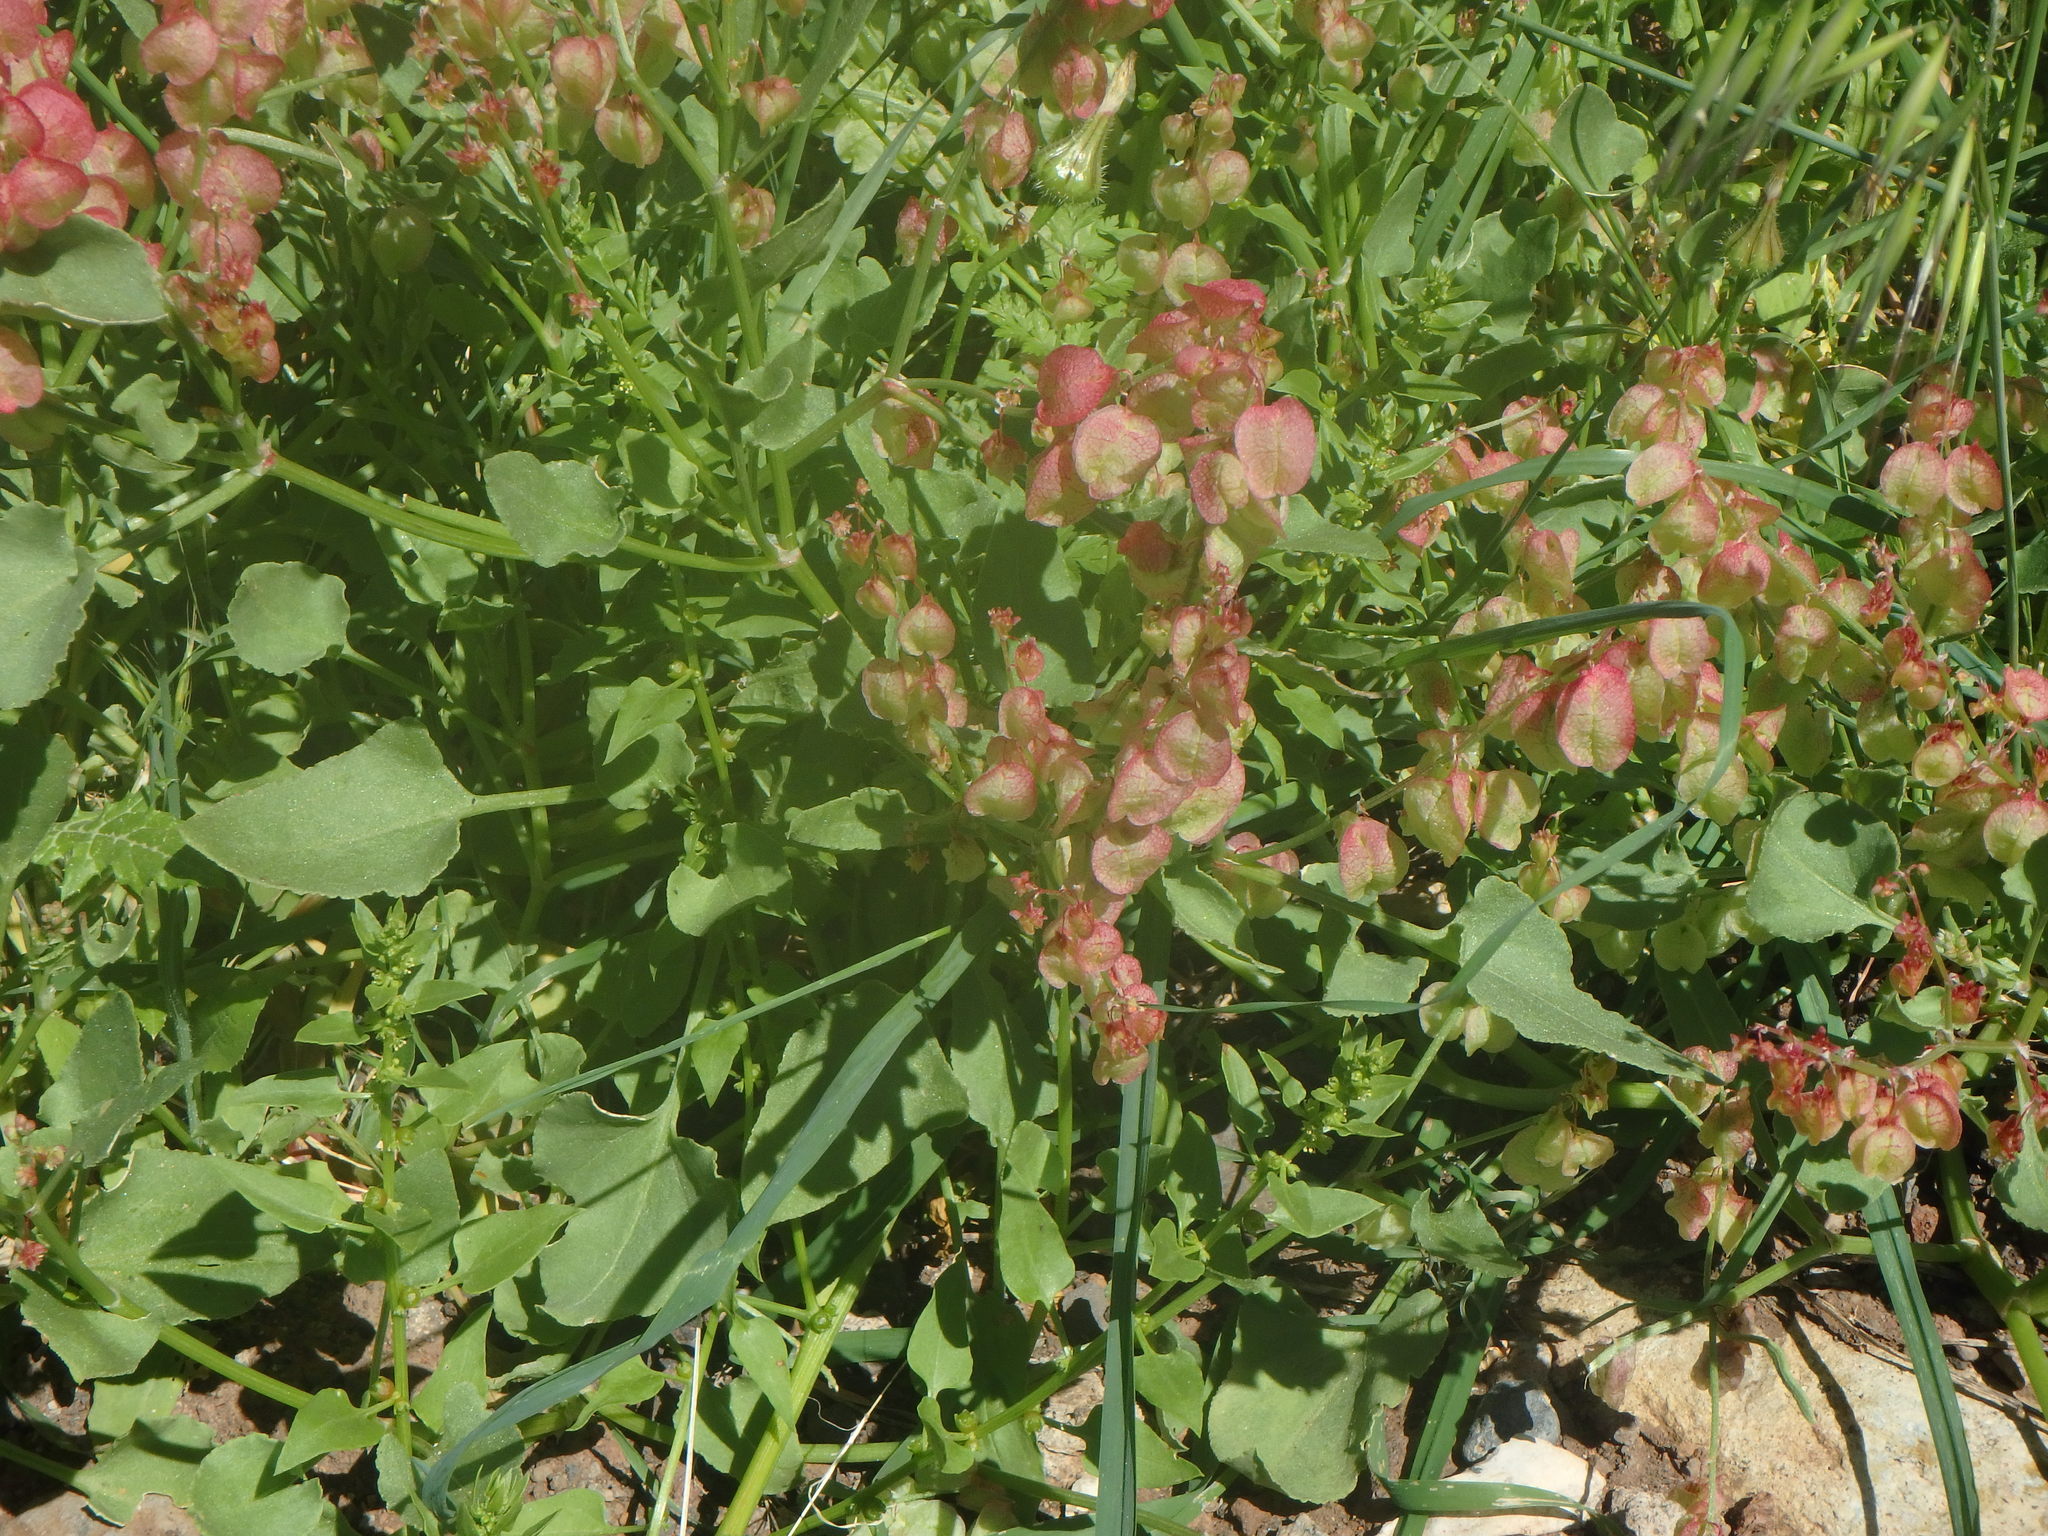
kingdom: Plantae
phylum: Tracheophyta
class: Magnoliopsida
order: Caryophyllales
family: Polygonaceae
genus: Rumex
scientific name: Rumex vesicarius
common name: Bladder dock
